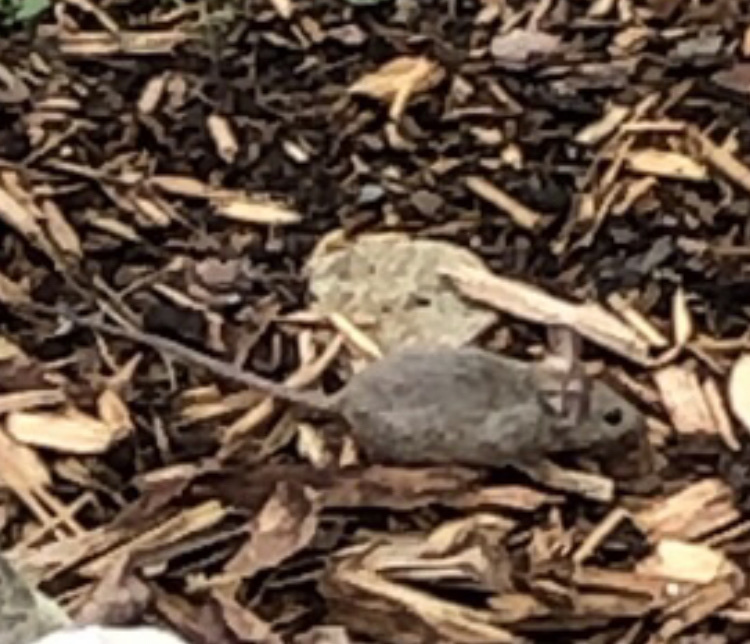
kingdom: Animalia
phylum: Chordata
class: Mammalia
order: Rodentia
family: Muridae
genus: Mus
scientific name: Mus musculus
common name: House mouse
